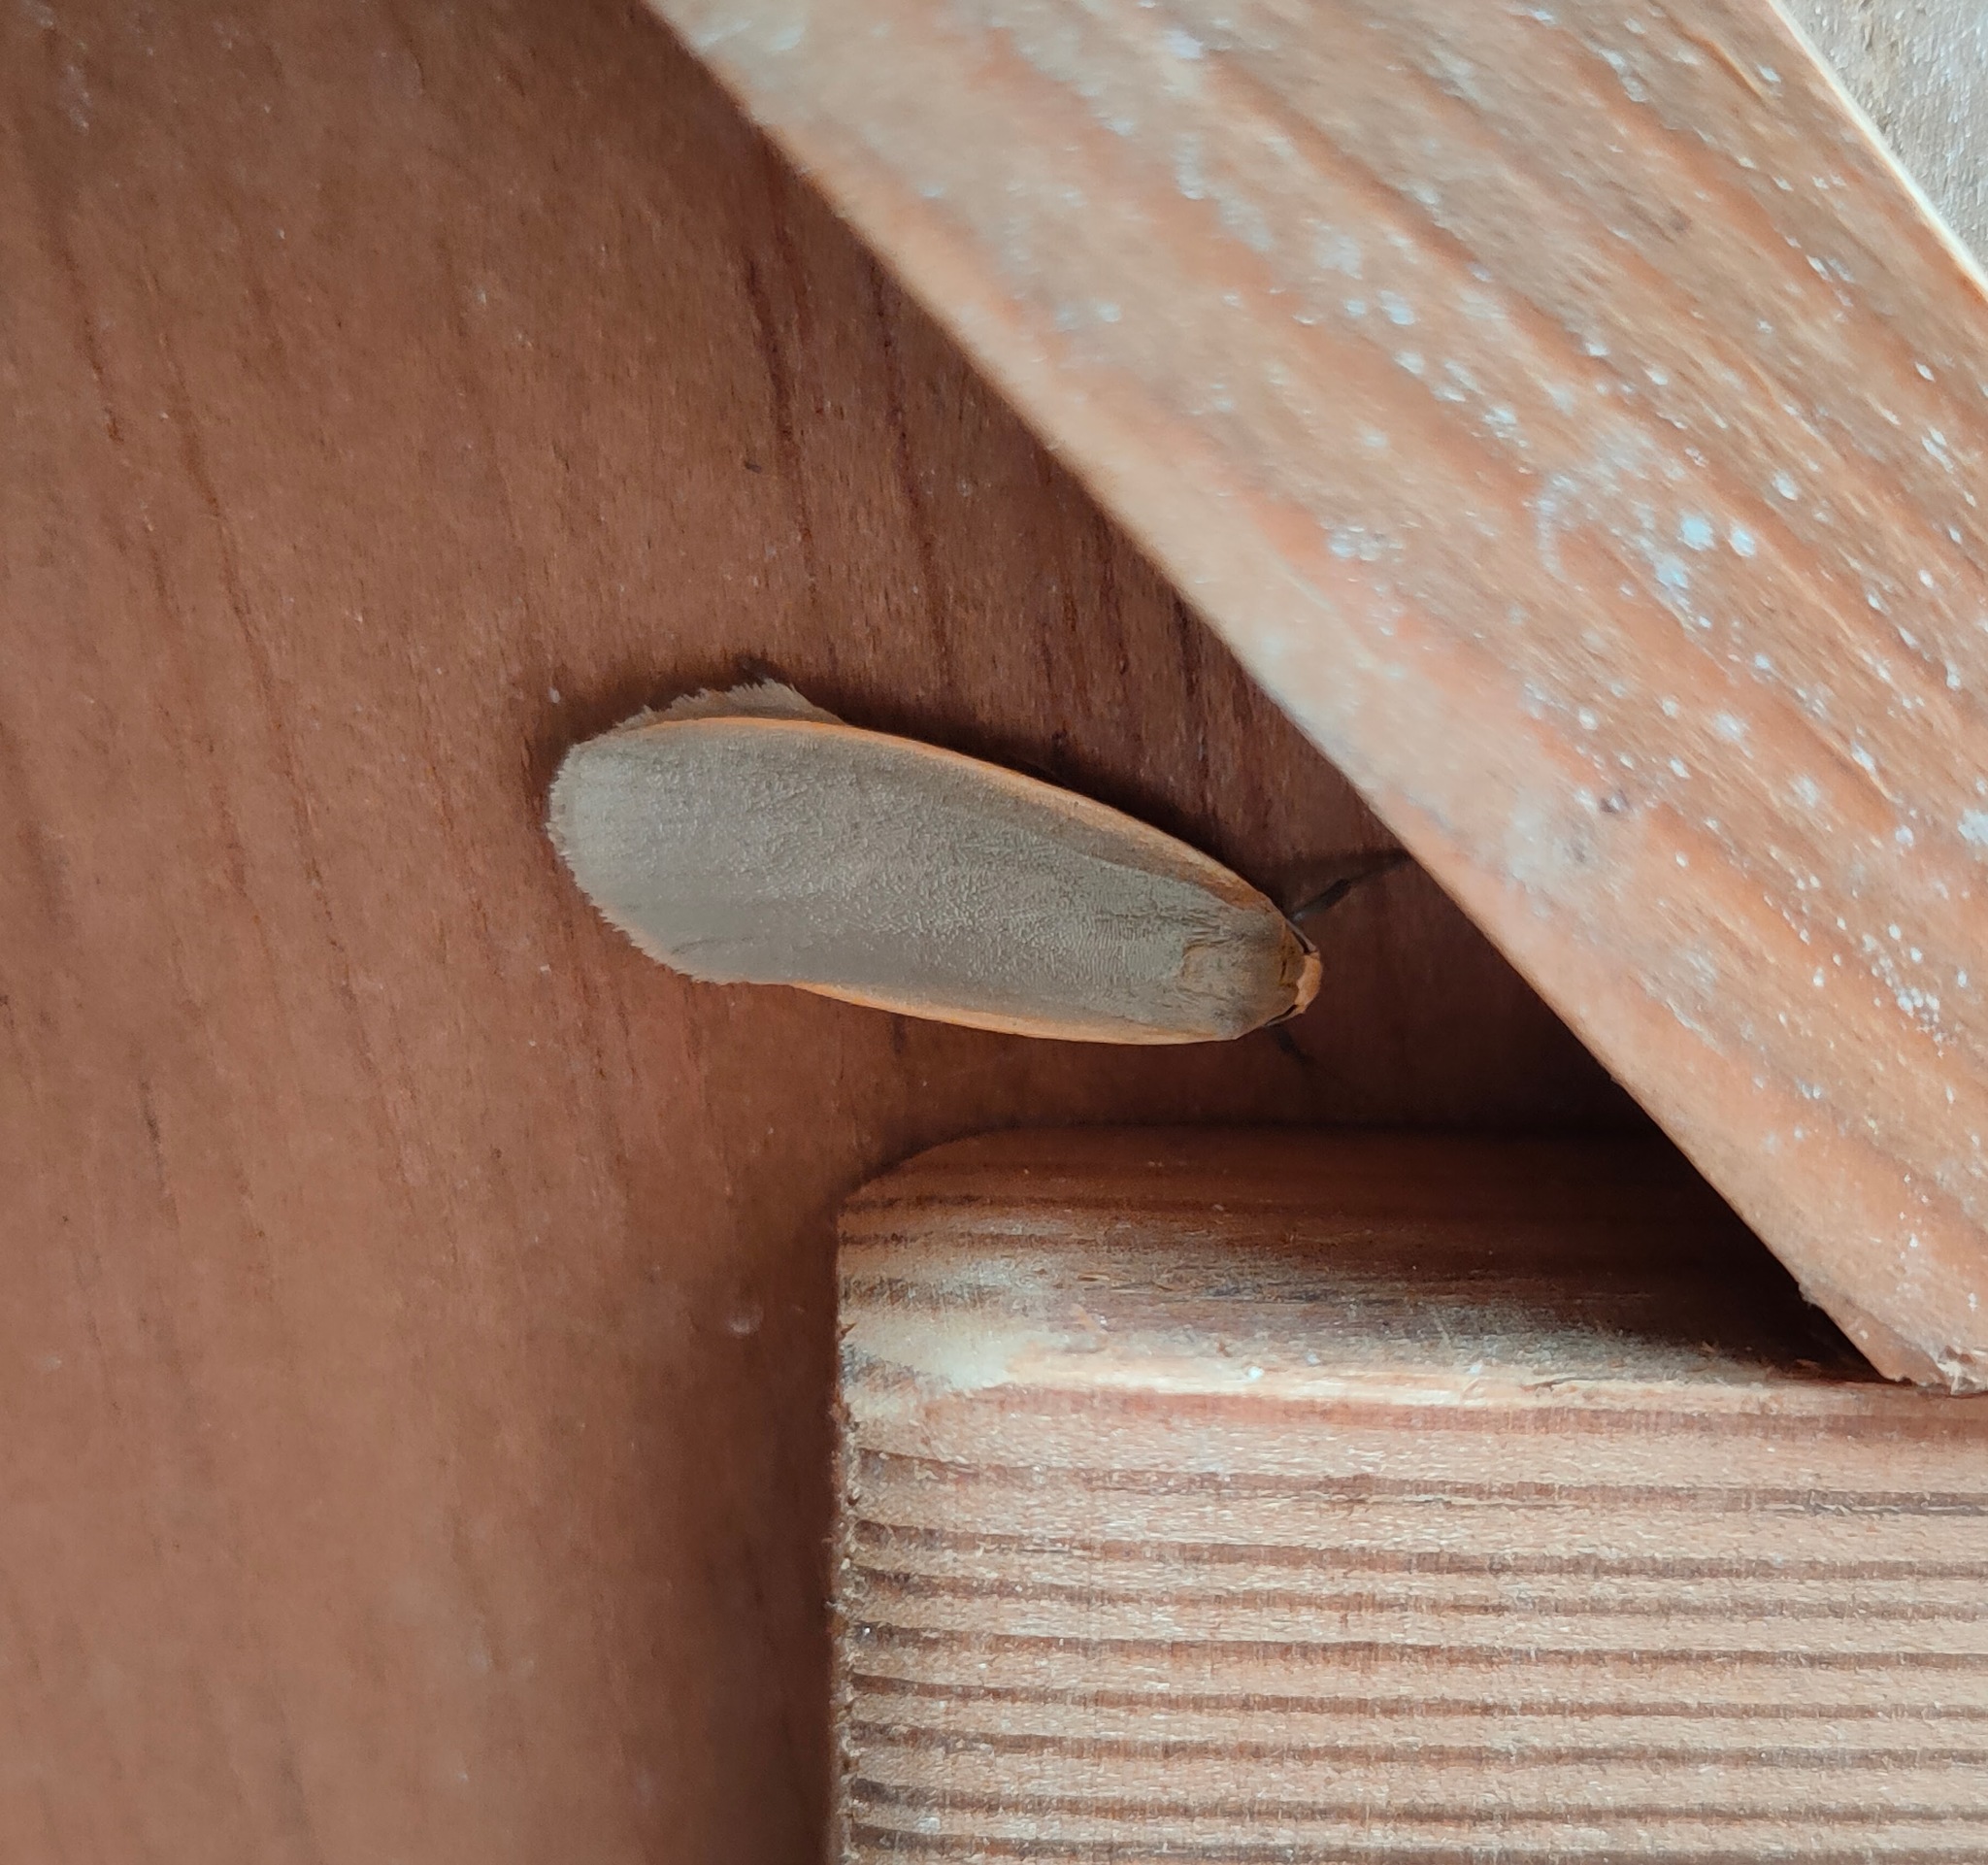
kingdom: Animalia
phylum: Arthropoda
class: Insecta
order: Lepidoptera
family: Erebidae
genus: Nyea
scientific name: Nyea lurideola
